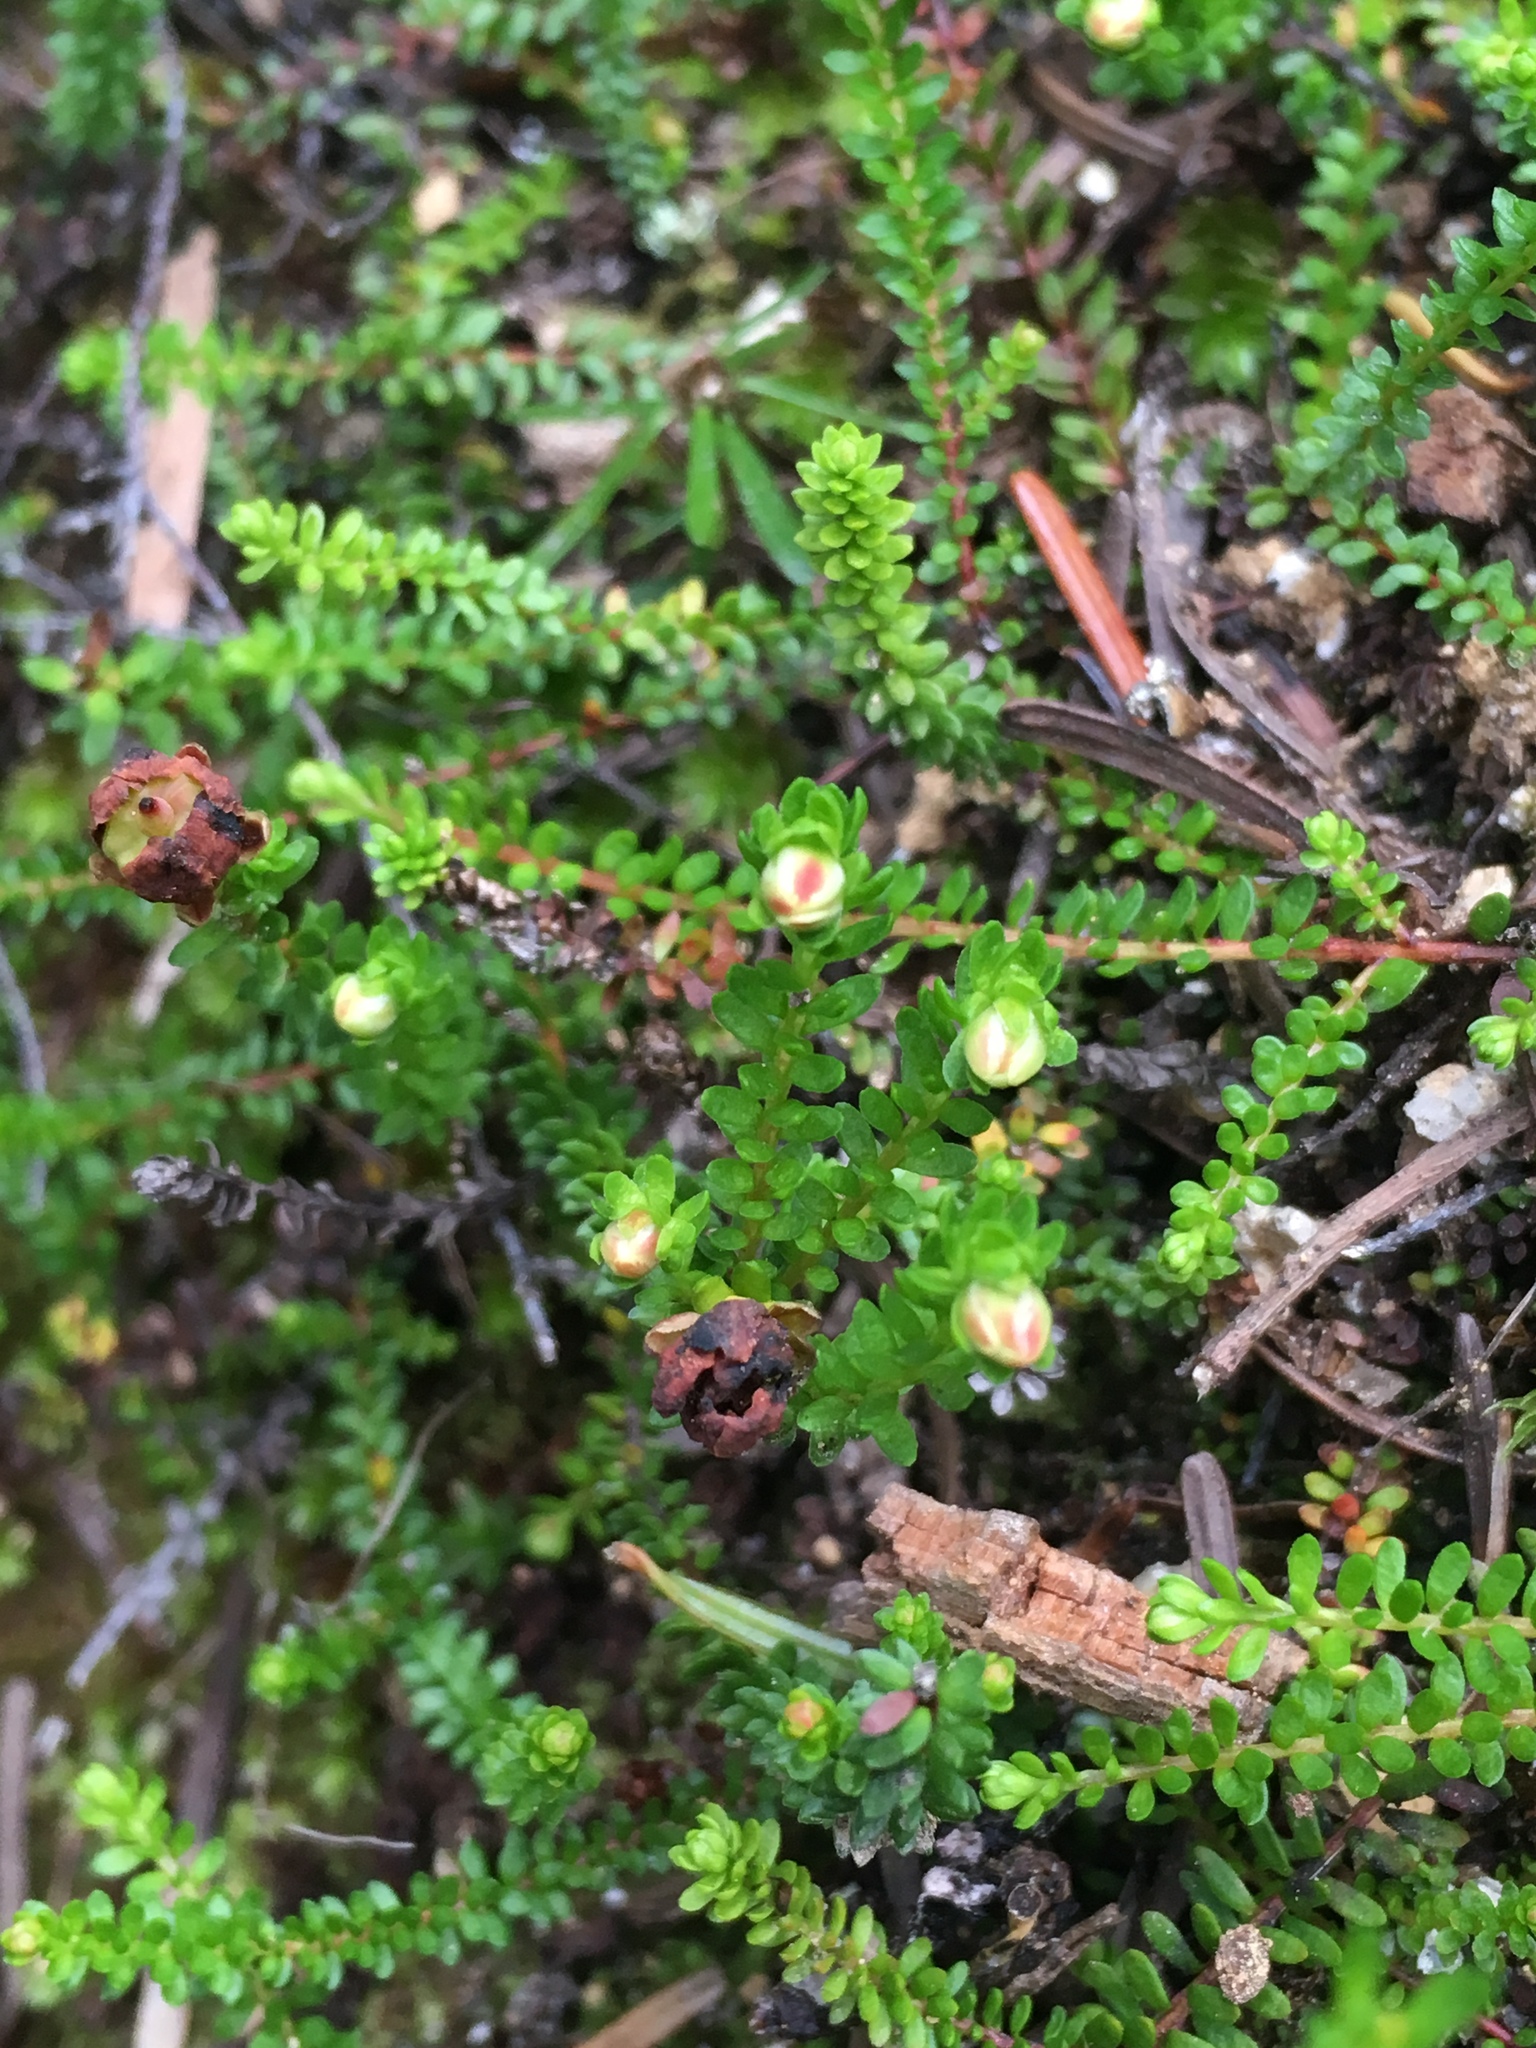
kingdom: Plantae
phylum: Tracheophyta
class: Magnoliopsida
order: Ericales
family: Ericaceae
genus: Harrimanella
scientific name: Harrimanella stelleriana
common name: Alaska bell heather
